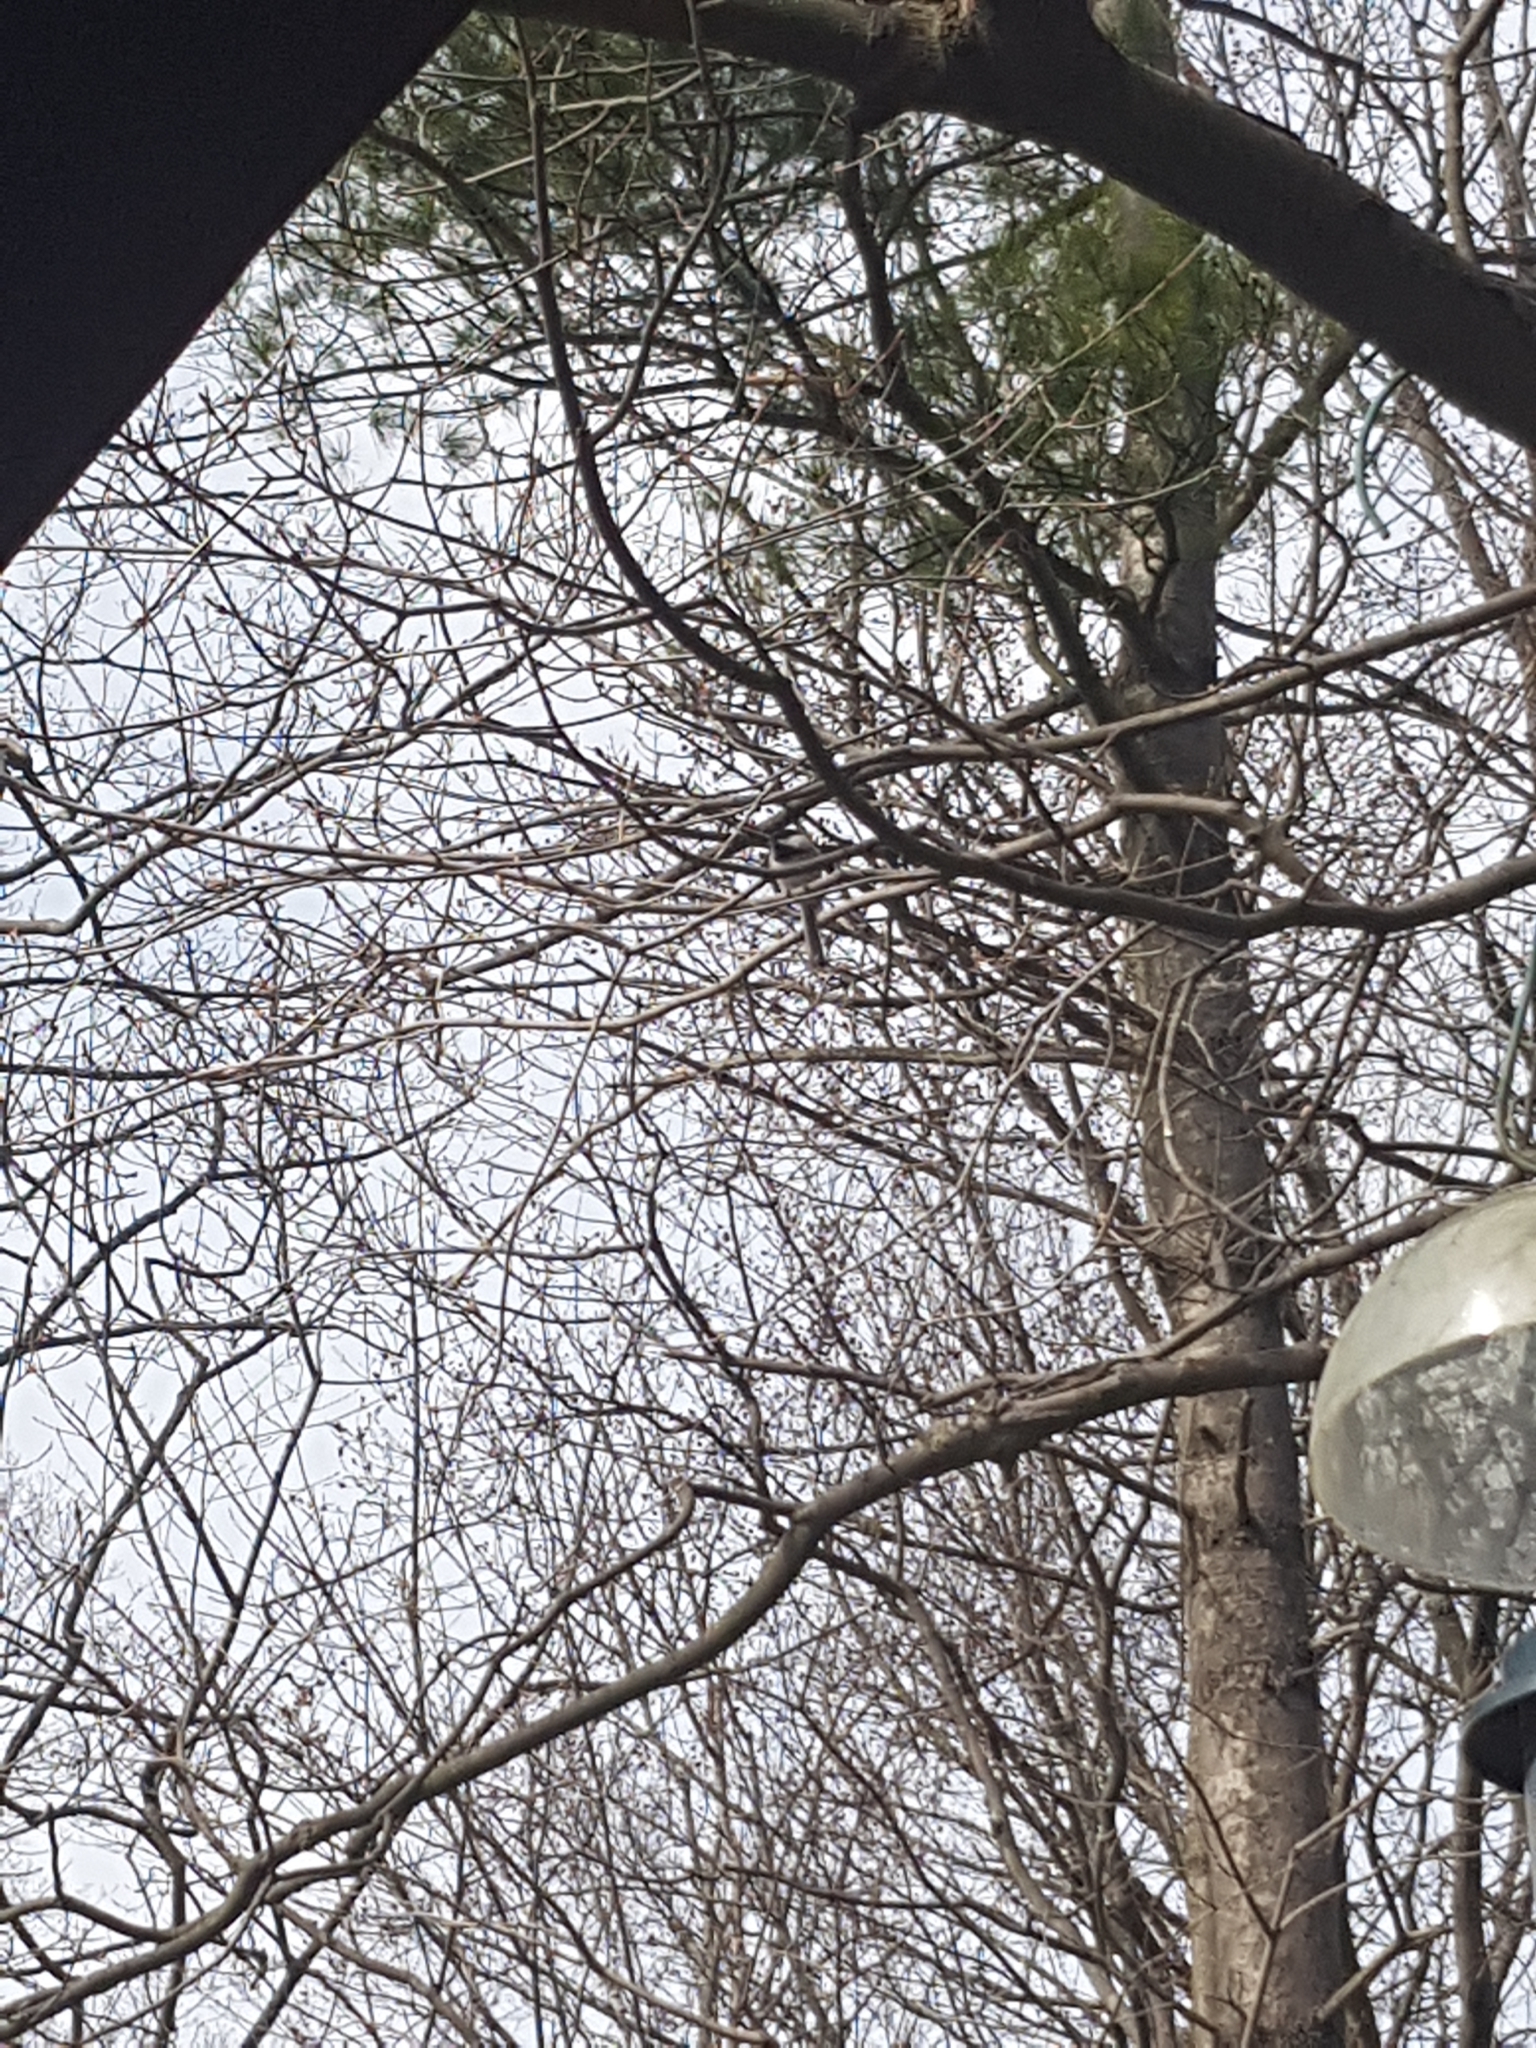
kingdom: Animalia
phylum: Chordata
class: Aves
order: Passeriformes
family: Paridae
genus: Poecile
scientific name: Poecile atricapillus
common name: Black-capped chickadee
